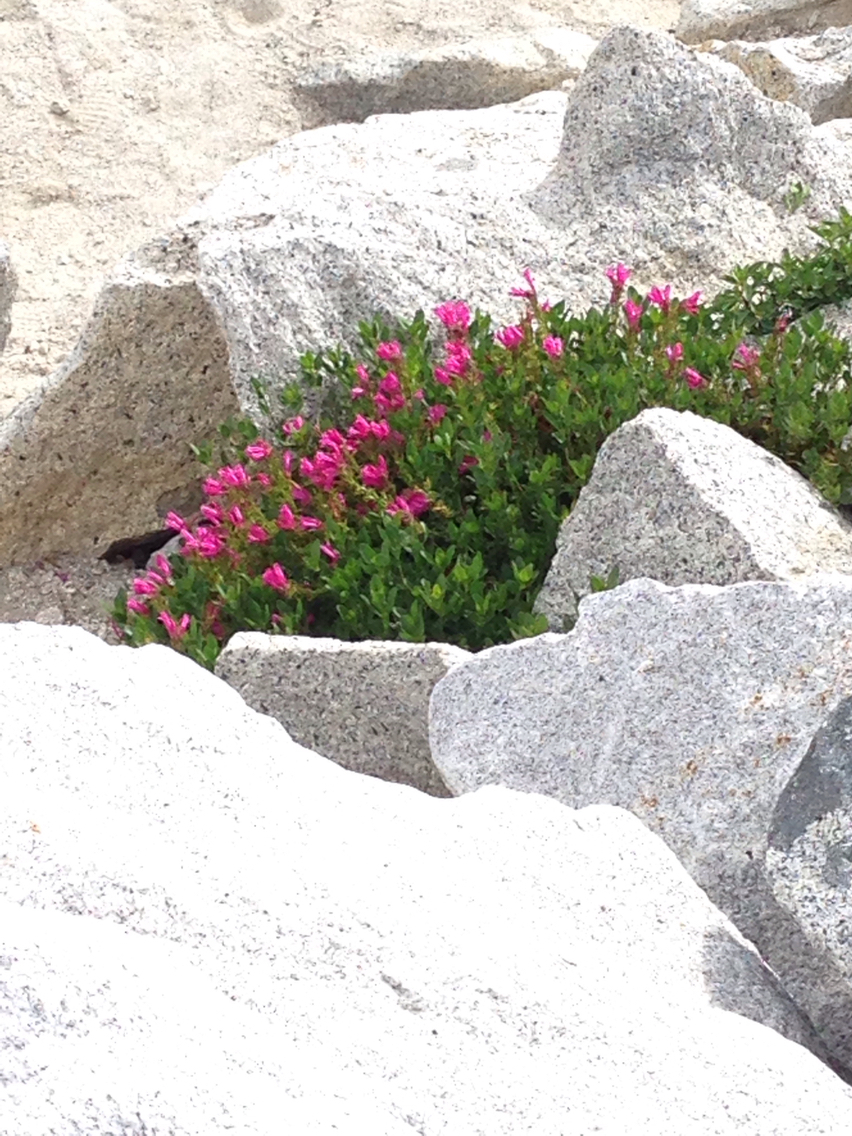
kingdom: Plantae
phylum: Tracheophyta
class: Magnoliopsida
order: Lamiales
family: Plantaginaceae
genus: Penstemon
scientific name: Penstemon newberryi
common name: Mountain-pride
